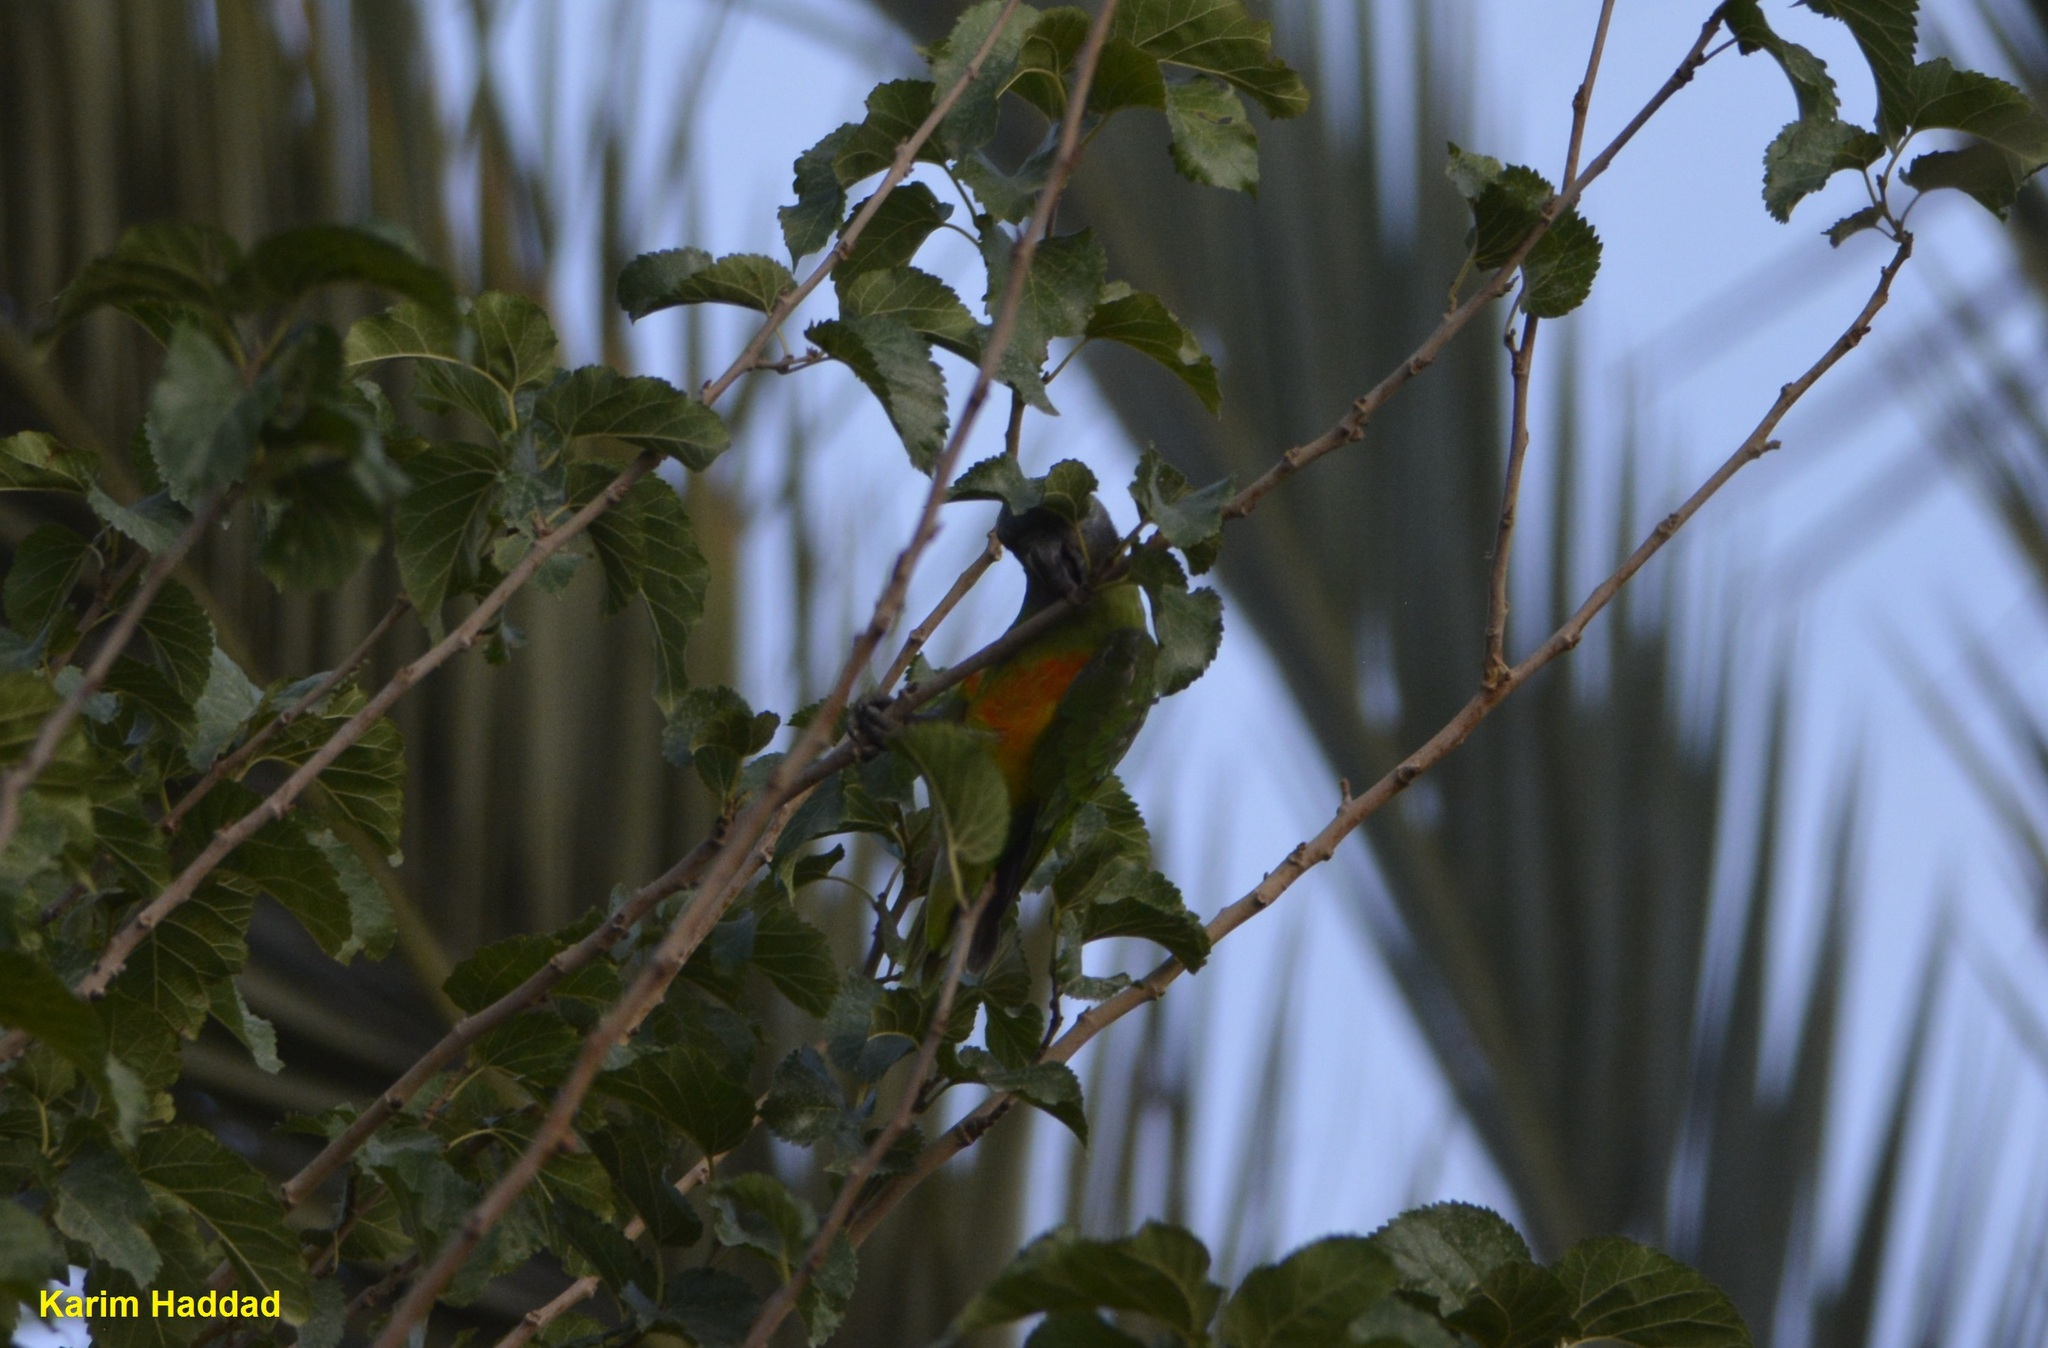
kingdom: Animalia
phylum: Chordata
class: Aves
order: Psittaciformes
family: Psittacidae
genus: Poicephalus
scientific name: Poicephalus senegalus
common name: Senegal parrot
